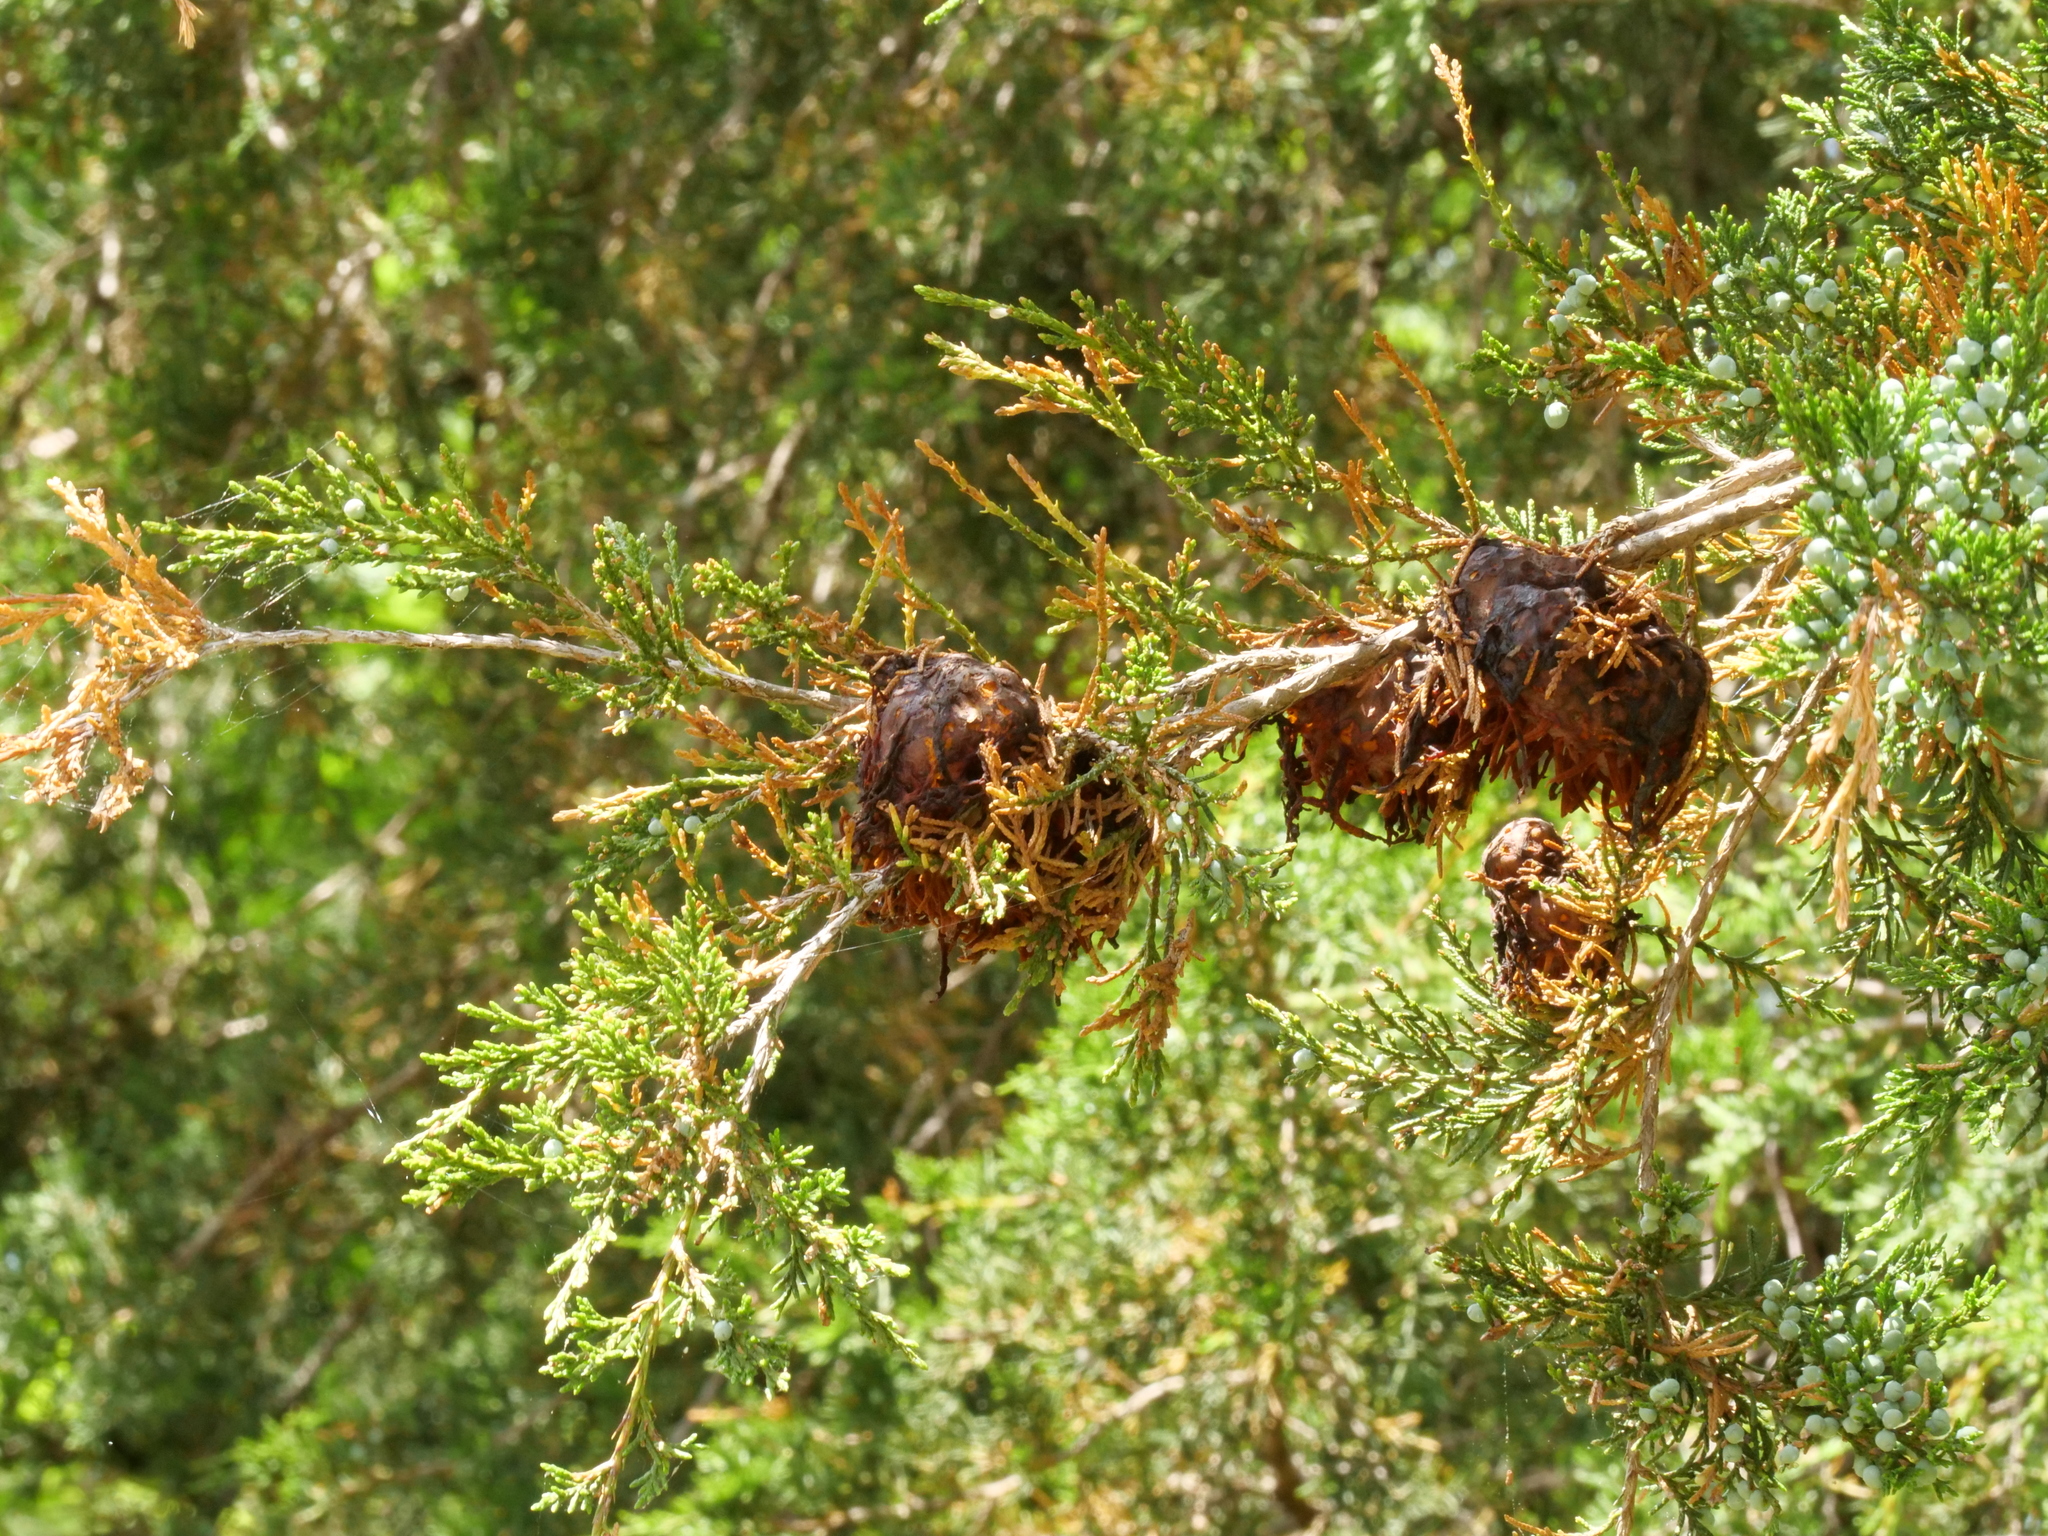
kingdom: Plantae
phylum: Tracheophyta
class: Pinopsida
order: Pinales
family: Cupressaceae
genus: Juniperus
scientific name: Juniperus virginiana
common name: Red juniper
